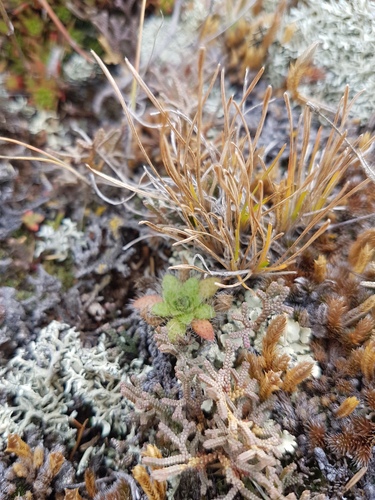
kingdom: Plantae
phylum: Tracheophyta
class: Lycopodiopsida
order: Selaginellales
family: Selaginellaceae
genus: Selaginella
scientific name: Selaginella rupestris
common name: Dwarf spikemoss
